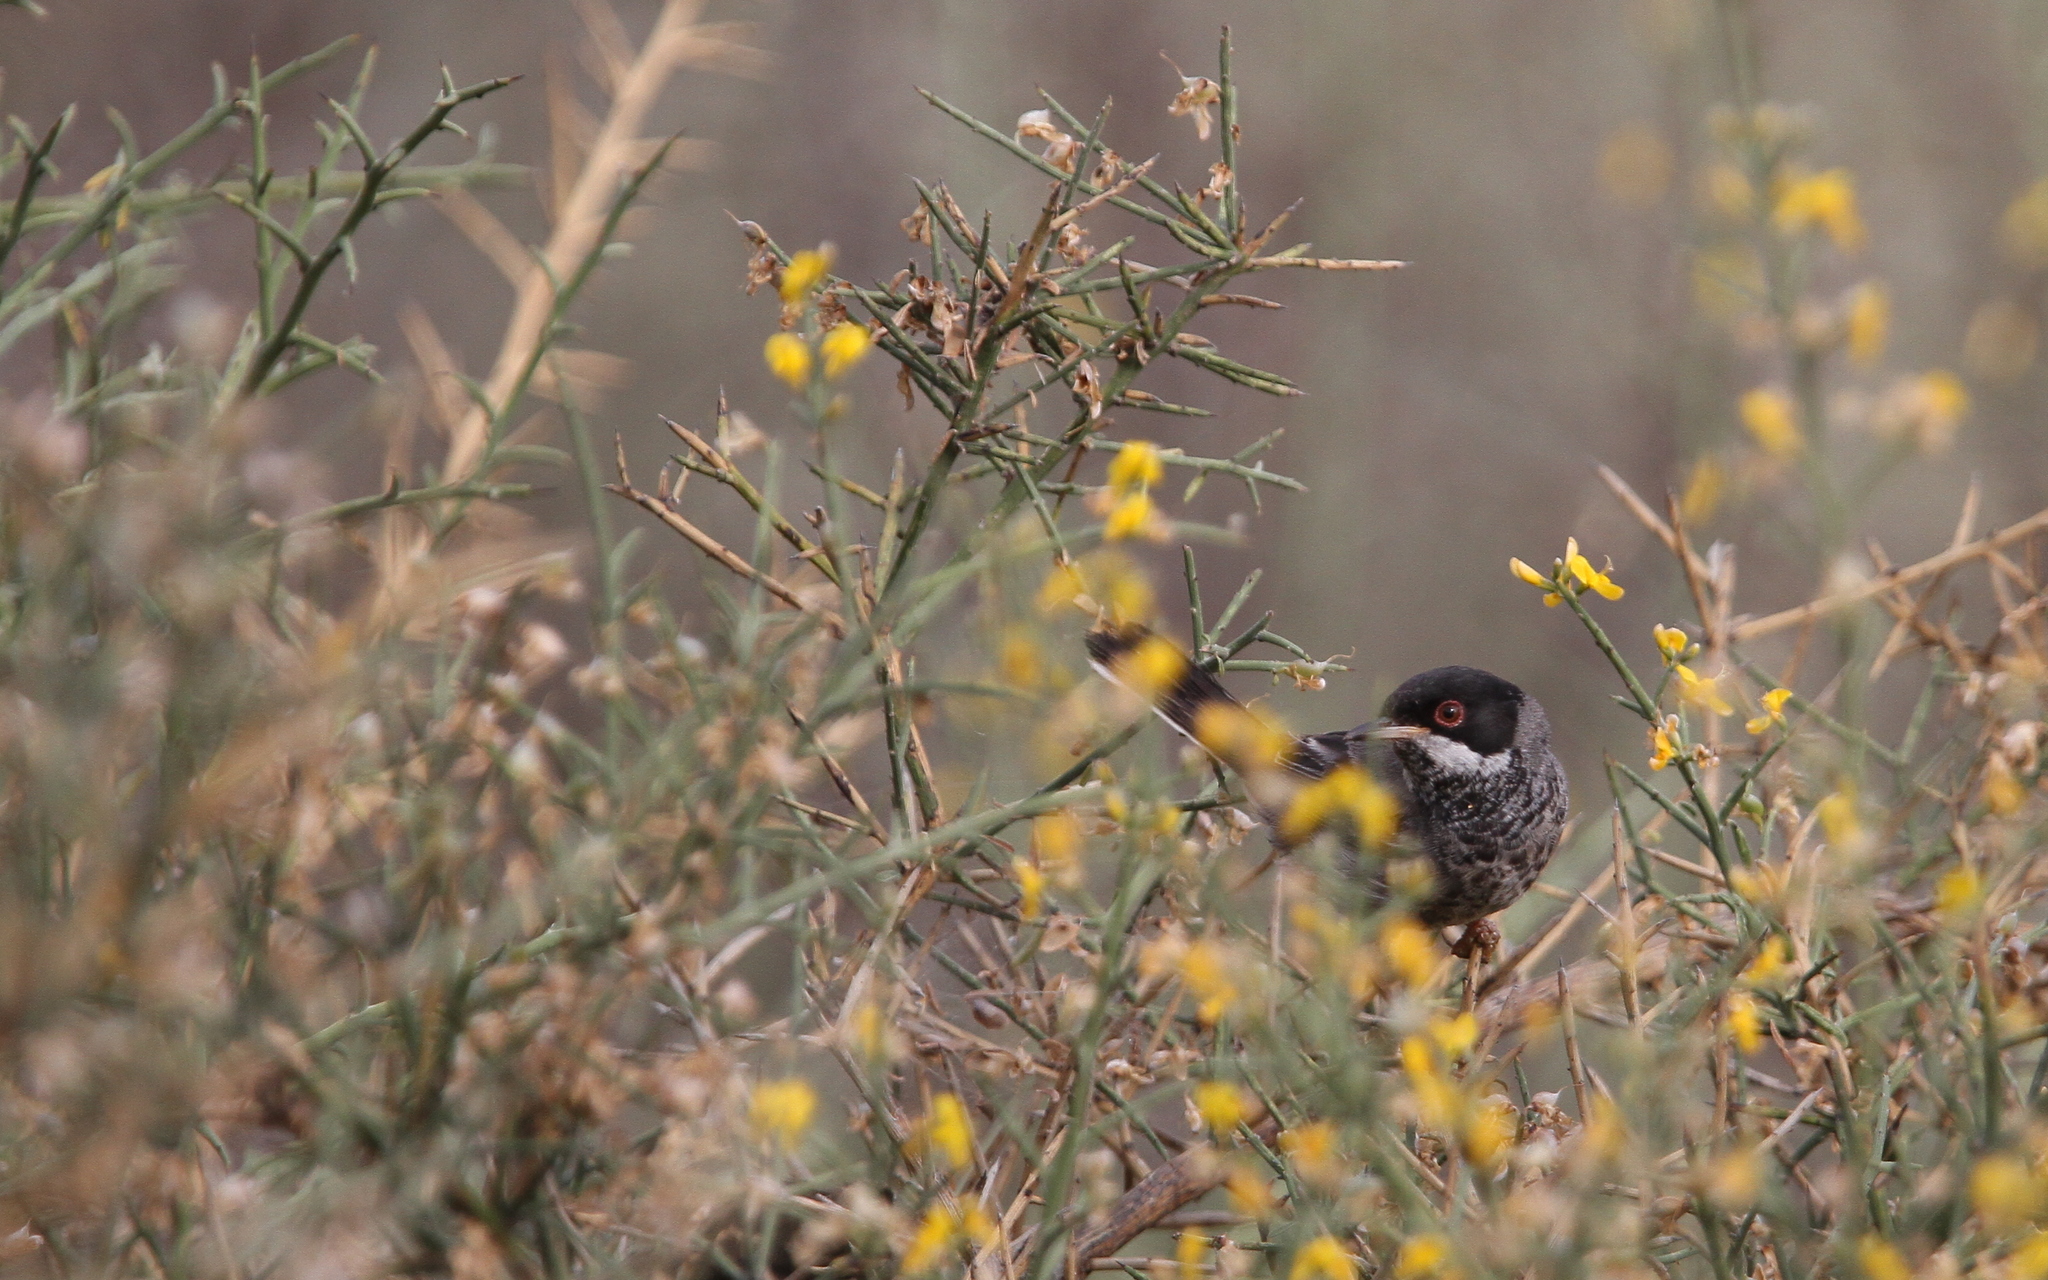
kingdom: Animalia
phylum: Chordata
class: Aves
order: Passeriformes
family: Sylviidae
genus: Sylvia
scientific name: Sylvia melanothorax
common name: Cyprus warbler
